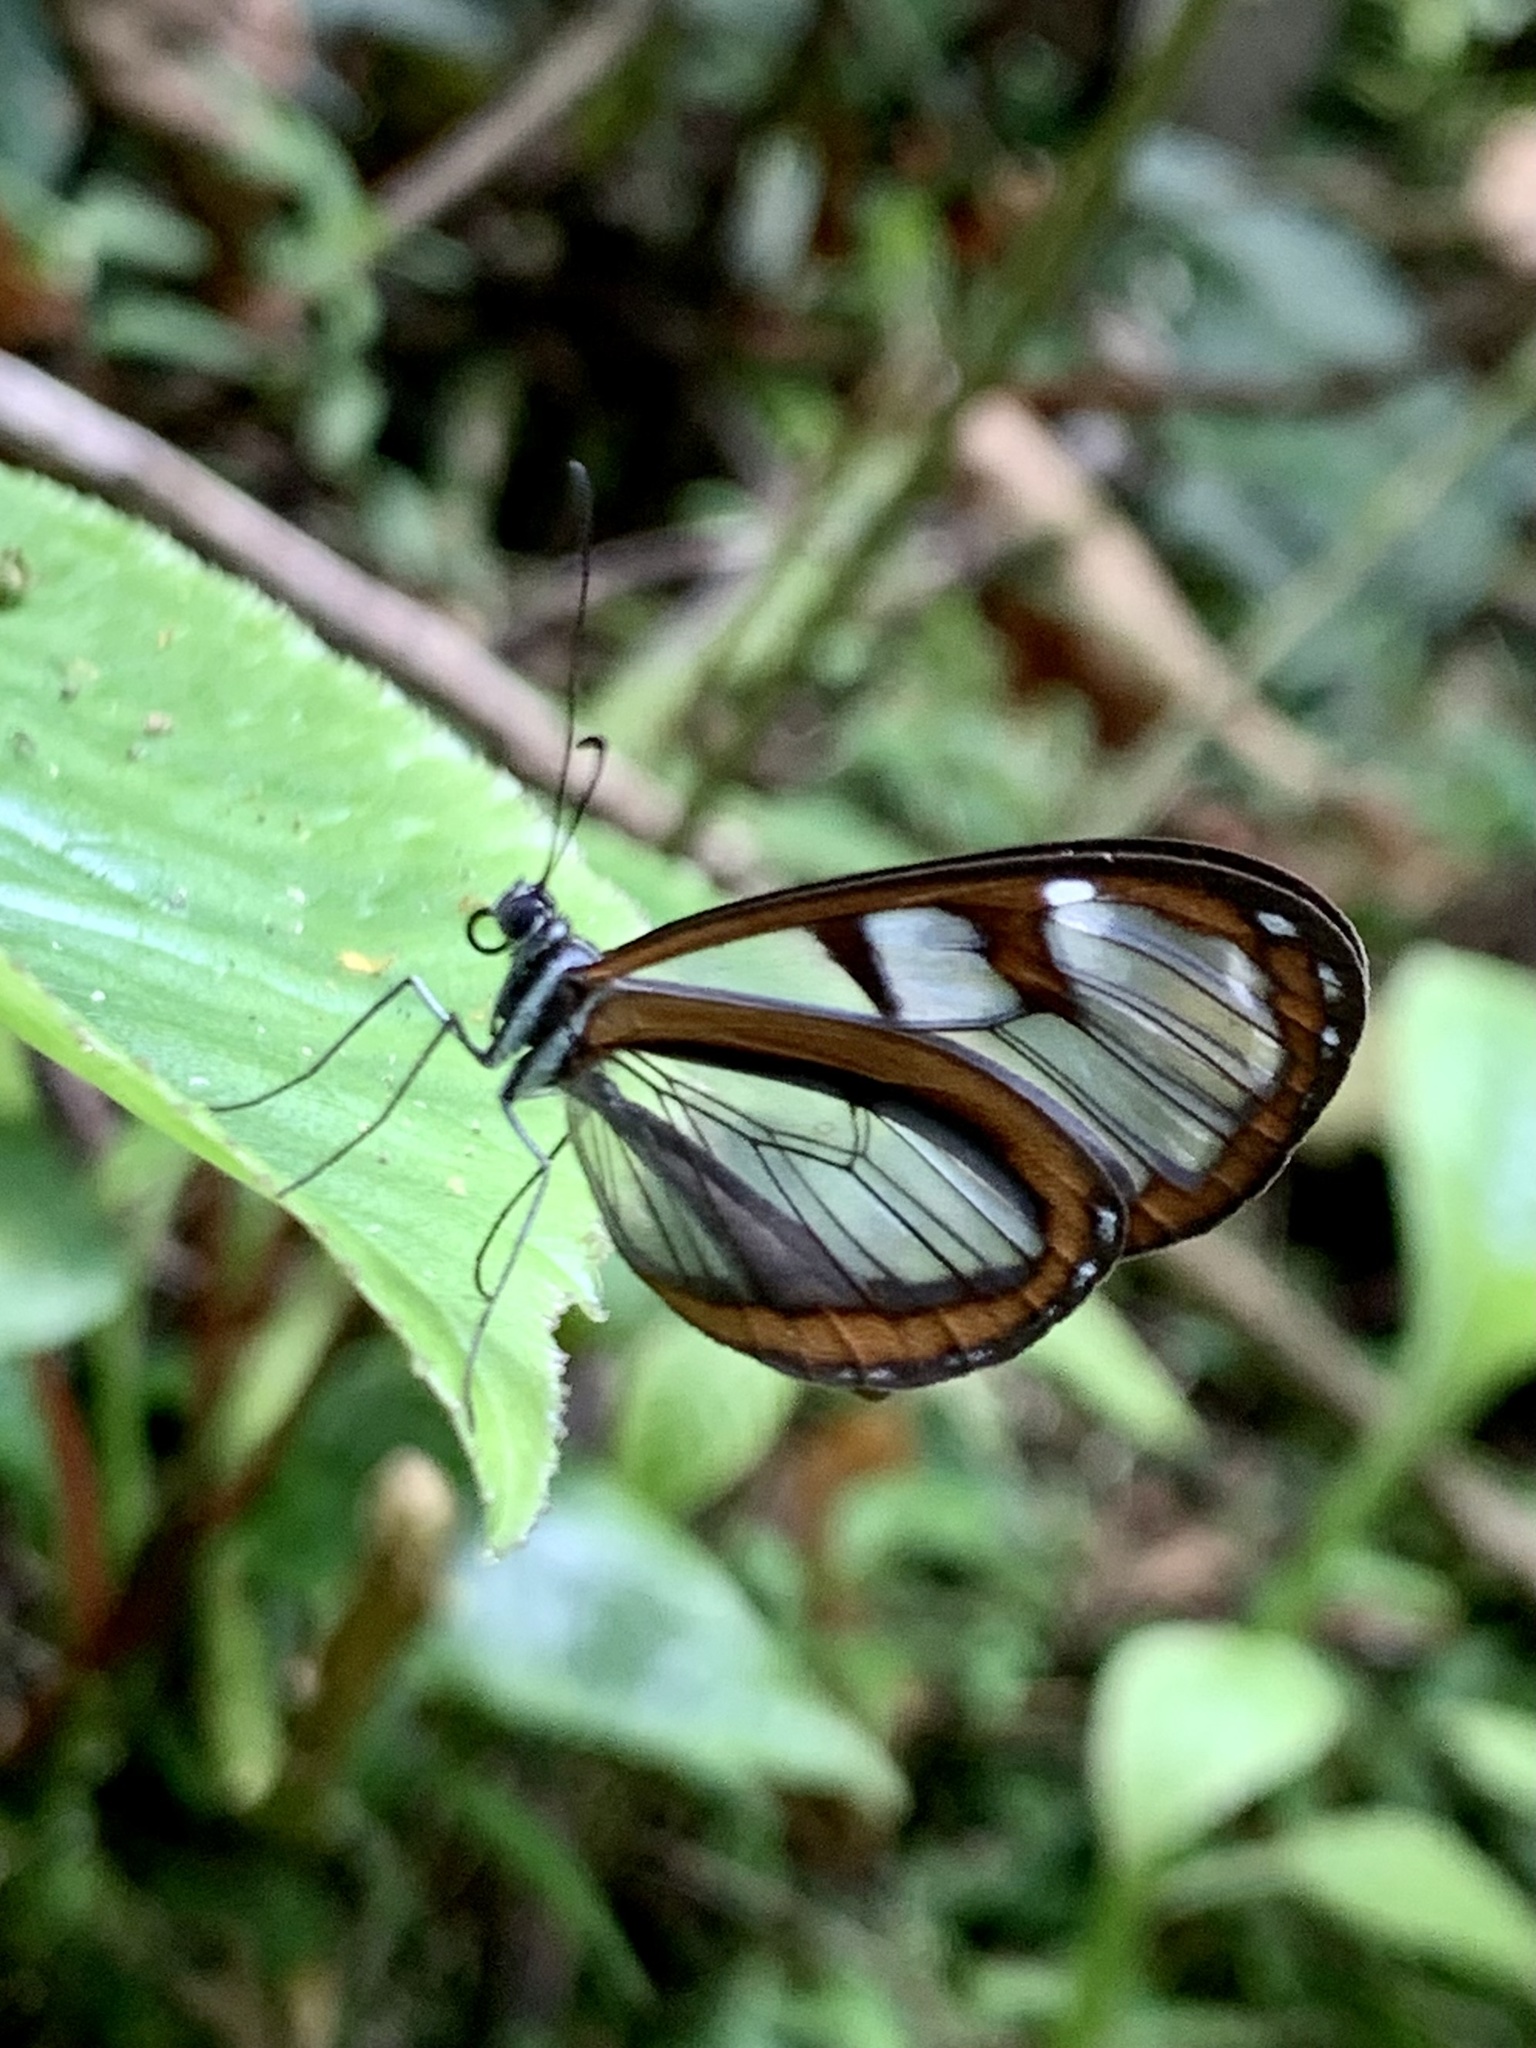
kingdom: Animalia
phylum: Arthropoda
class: Insecta
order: Lepidoptera
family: Nymphalidae
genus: Oleria
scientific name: Oleria makrena
